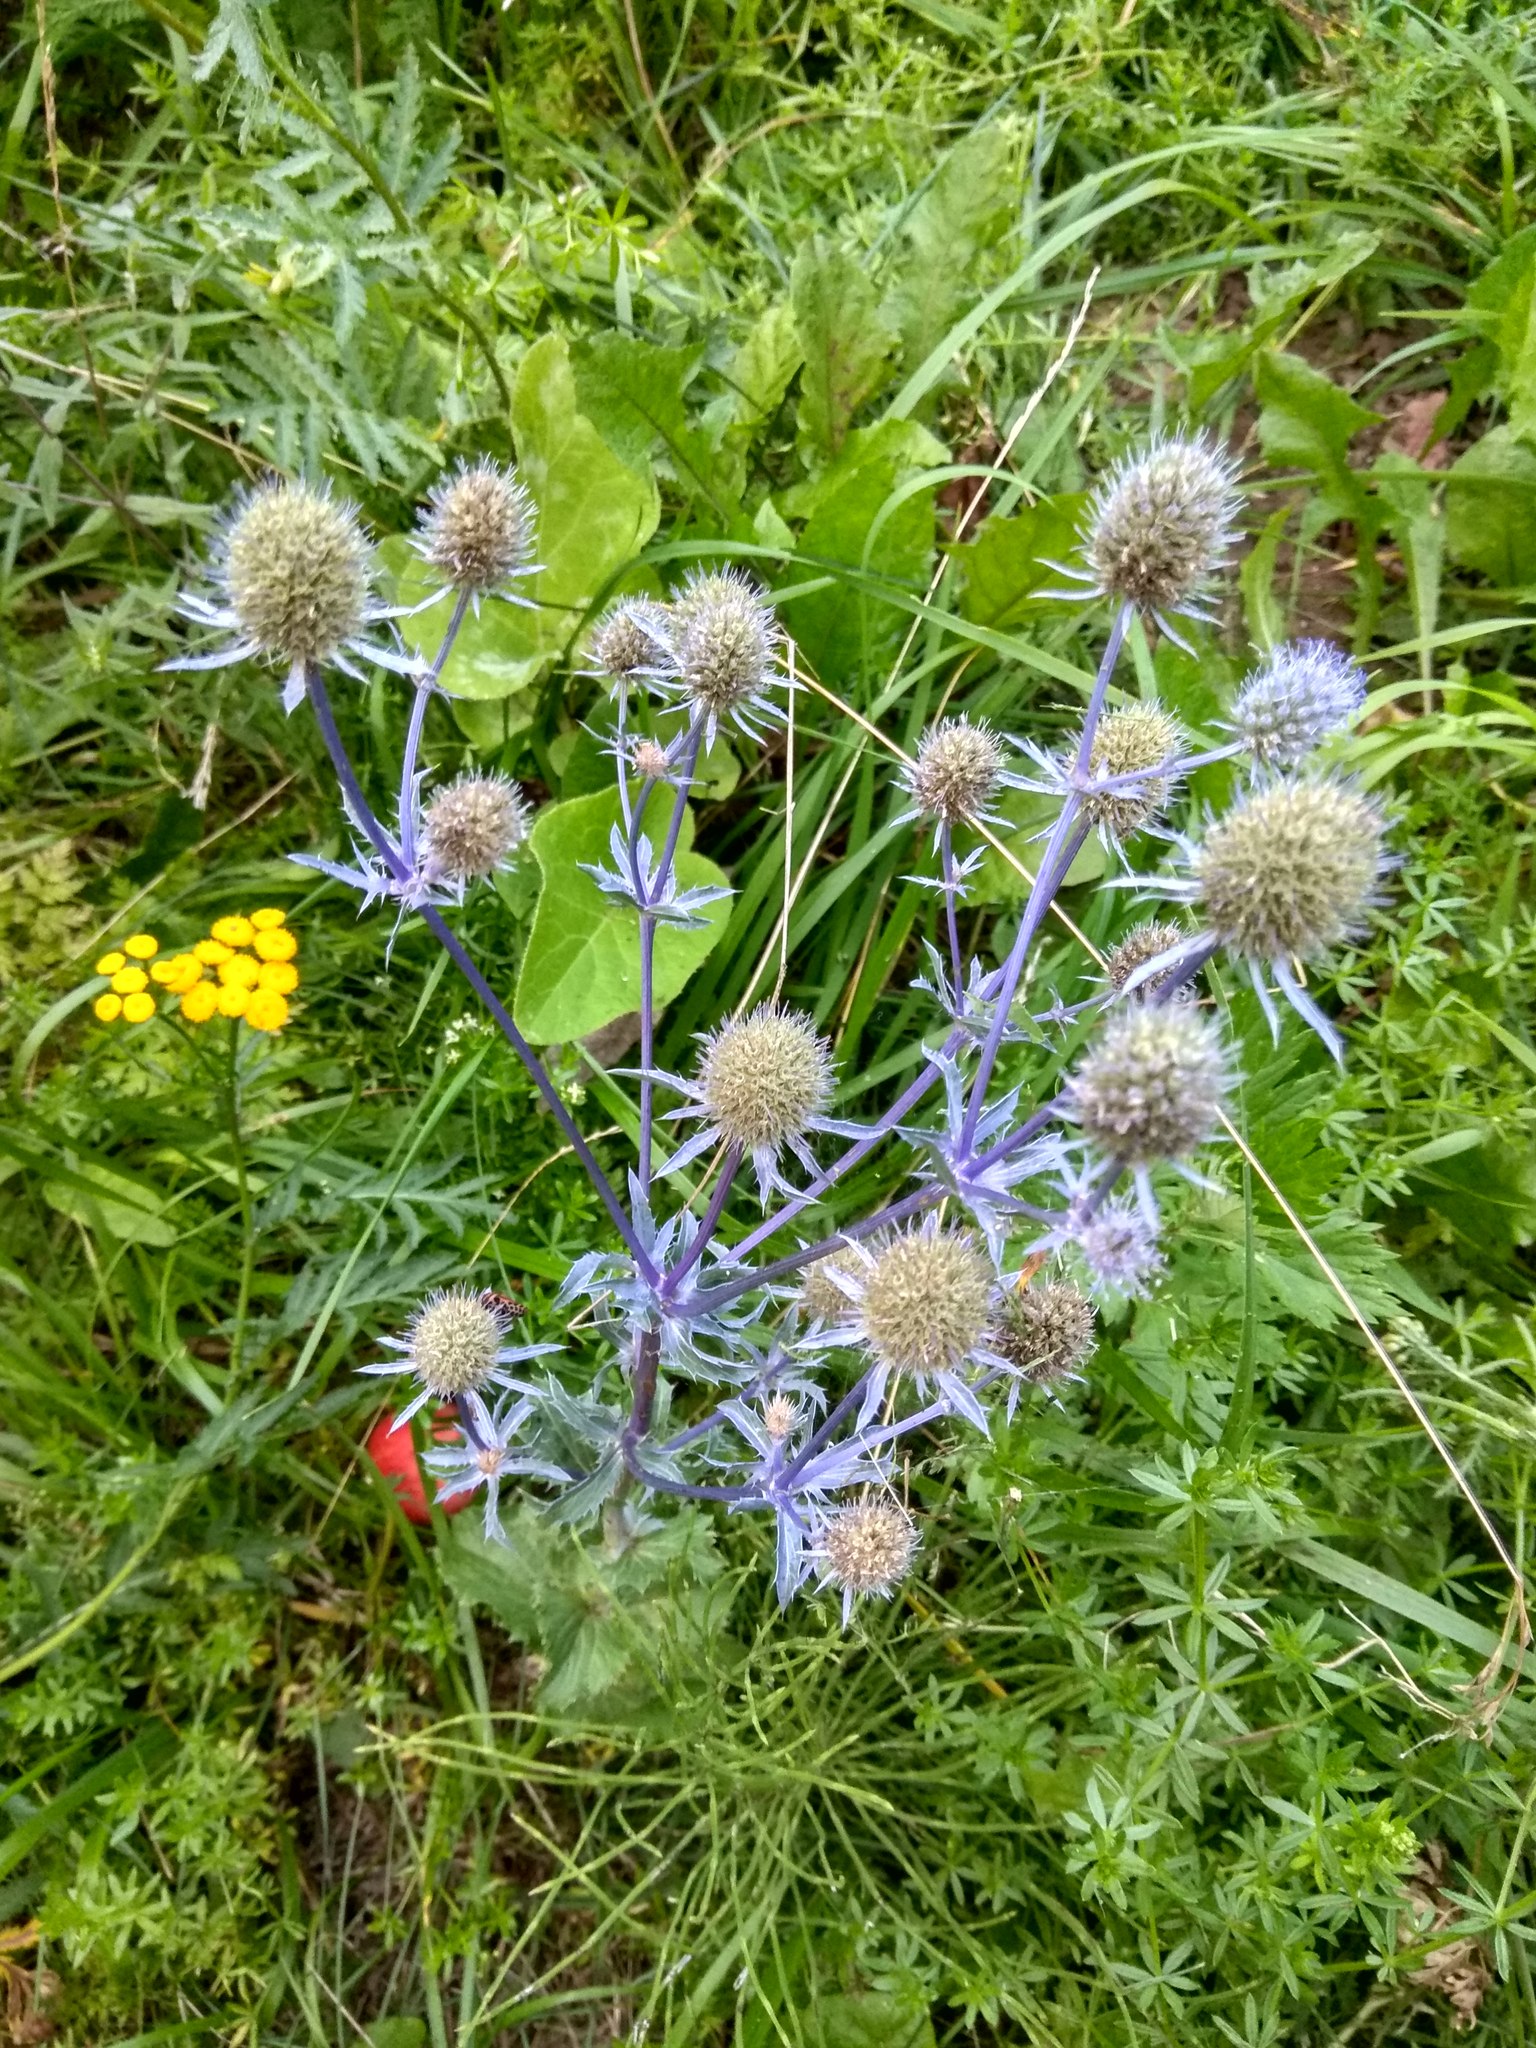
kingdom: Plantae
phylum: Tracheophyta
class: Magnoliopsida
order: Apiales
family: Apiaceae
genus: Eryngium
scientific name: Eryngium planum
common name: Blue eryngo
